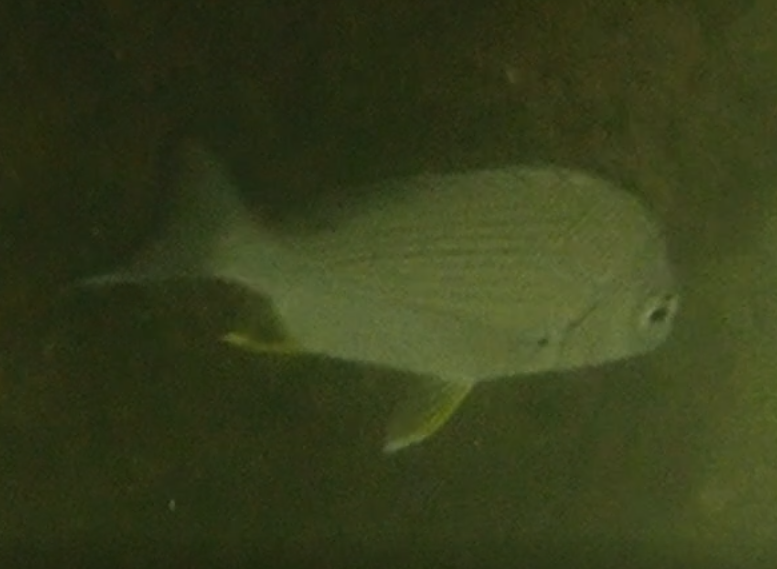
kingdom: Animalia
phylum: Chordata
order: Perciformes
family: Sparidae
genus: Acanthopagrus
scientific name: Acanthopagrus australis
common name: Surf bream
